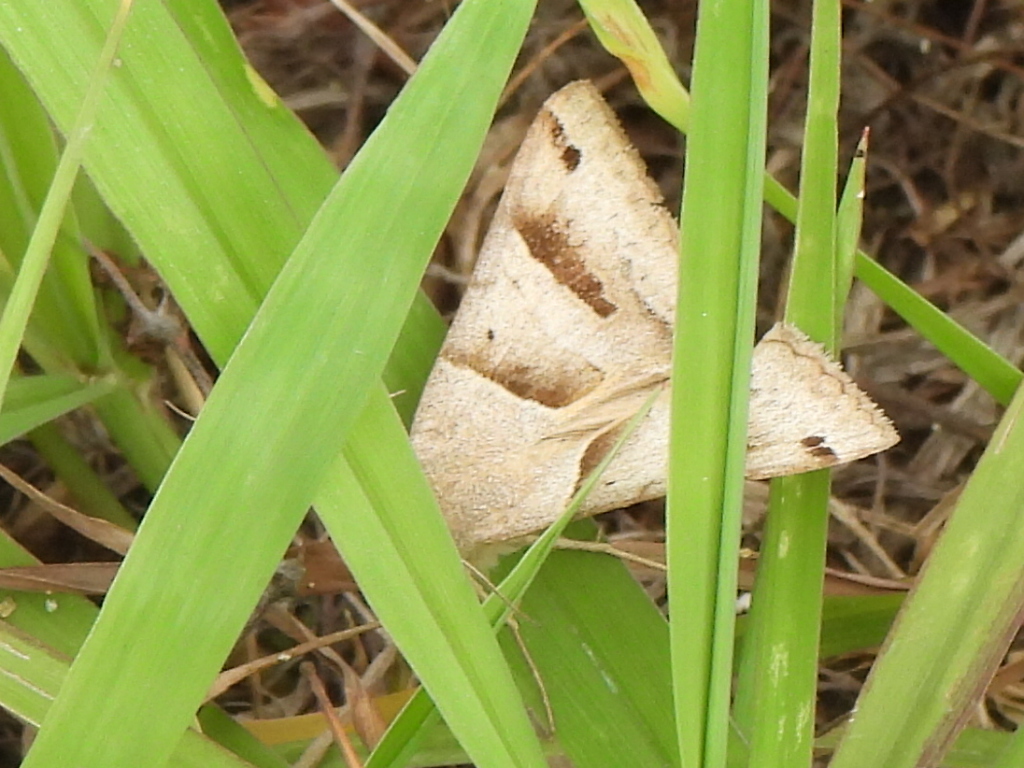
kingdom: Animalia
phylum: Arthropoda
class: Insecta
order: Lepidoptera
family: Erebidae
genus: Caenurgina
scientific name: Caenurgina erechtea
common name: Forage looper moth
